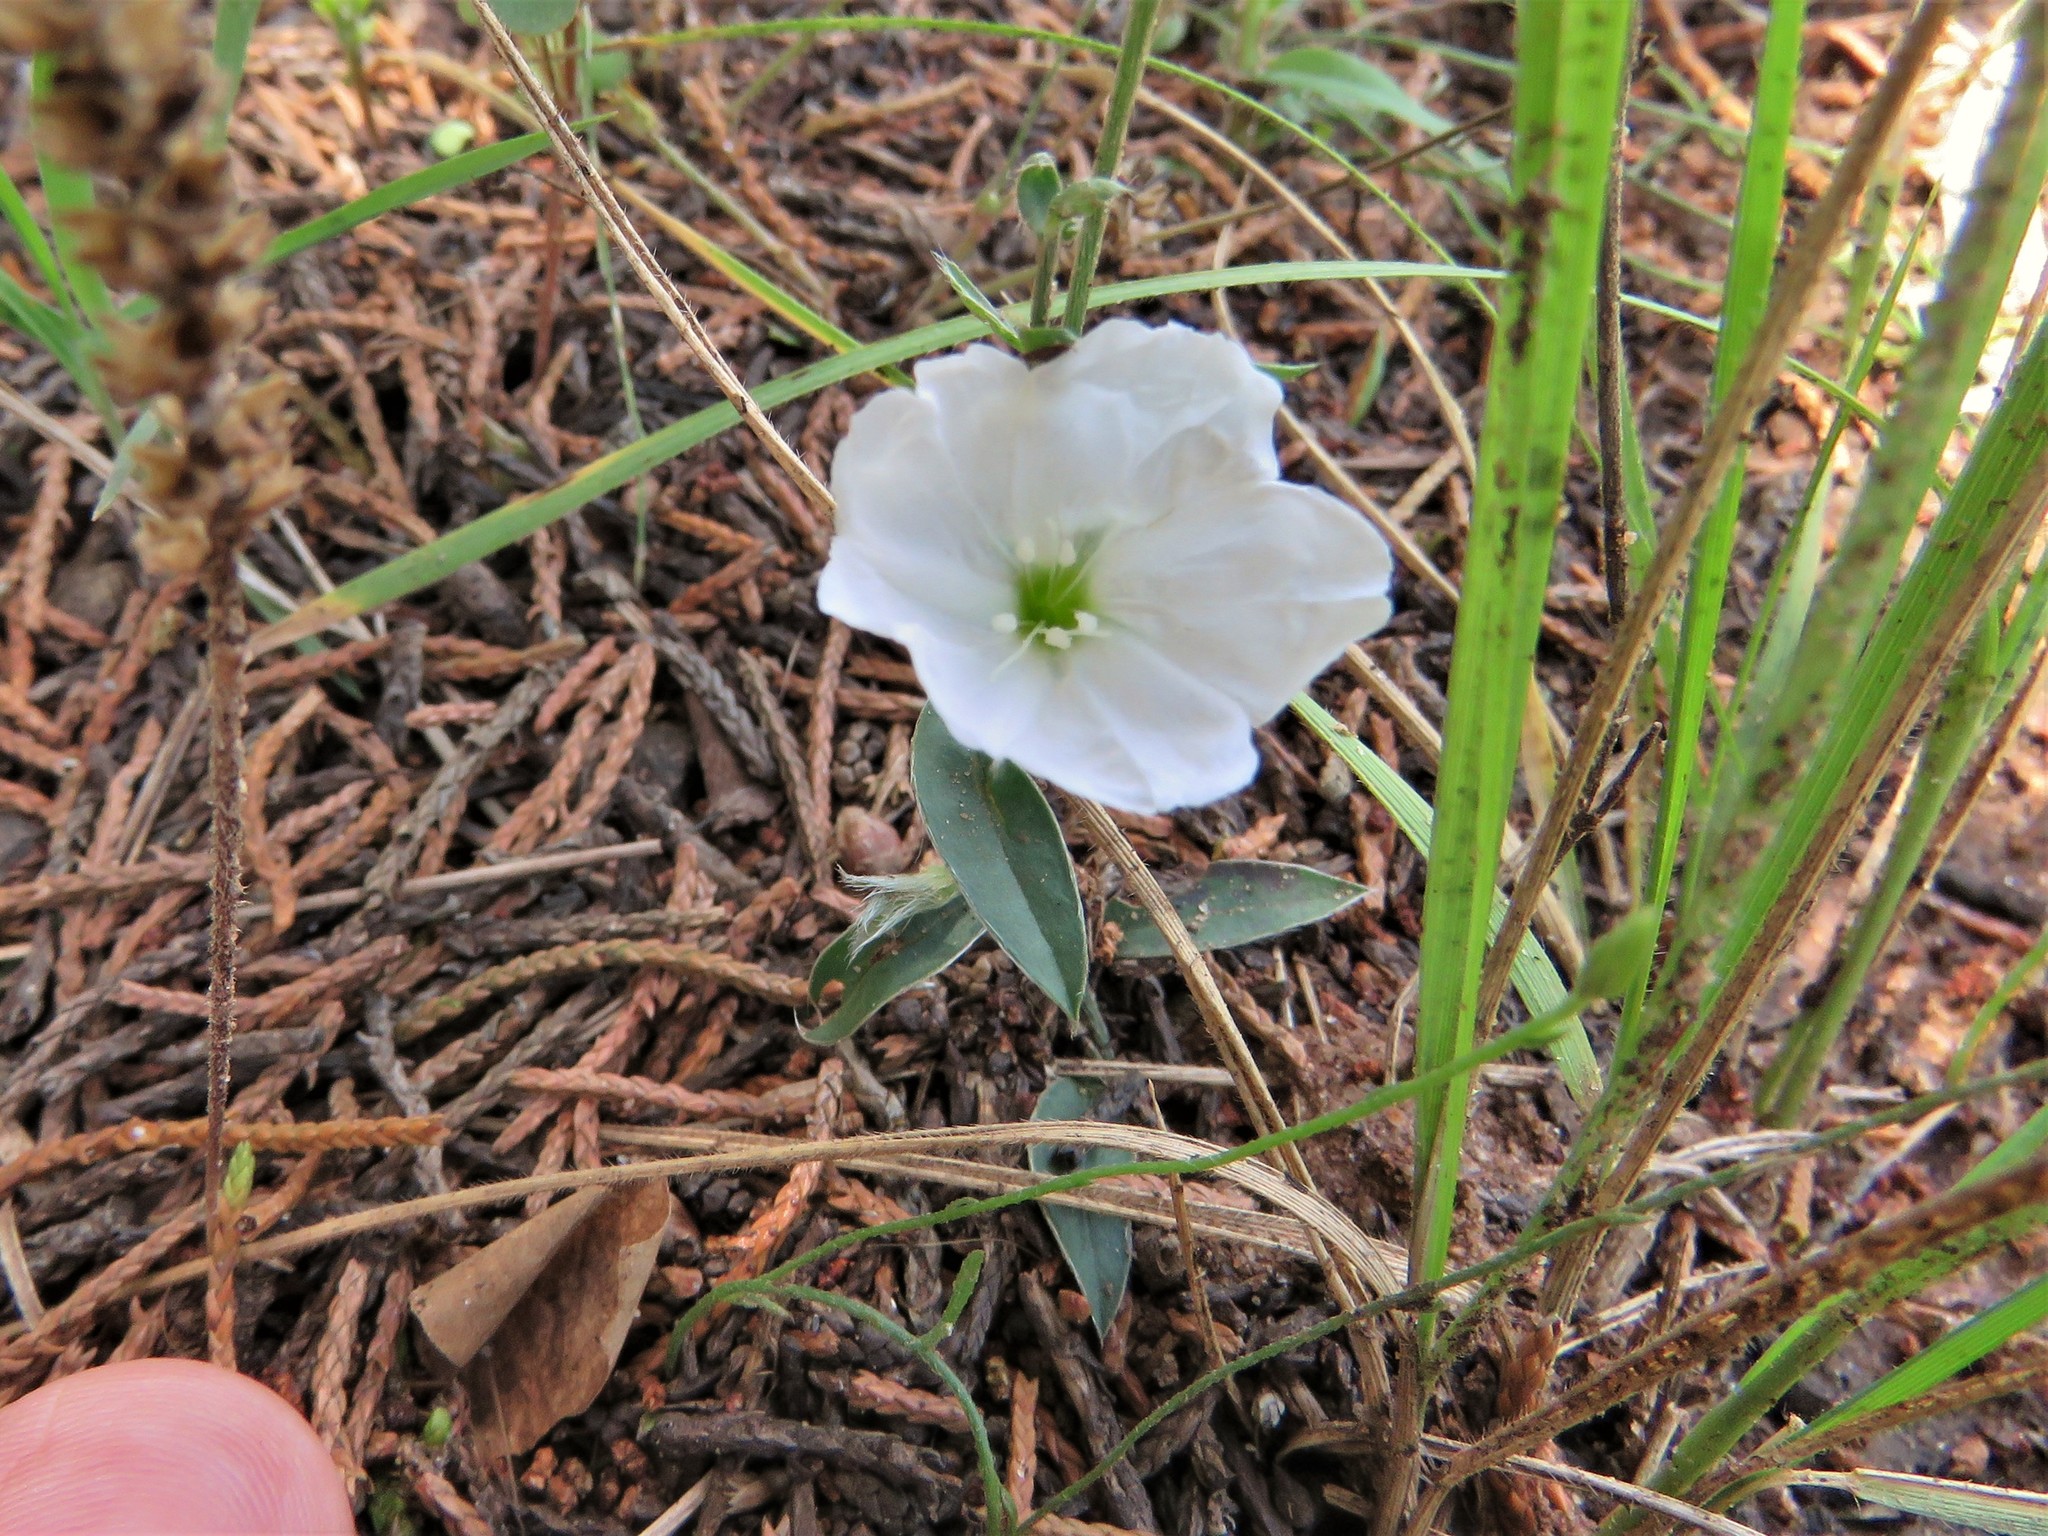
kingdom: Plantae
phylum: Tracheophyta
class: Magnoliopsida
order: Solanales
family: Convolvulaceae
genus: Evolvulus
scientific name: Evolvulus sericeus
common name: Blue dots
